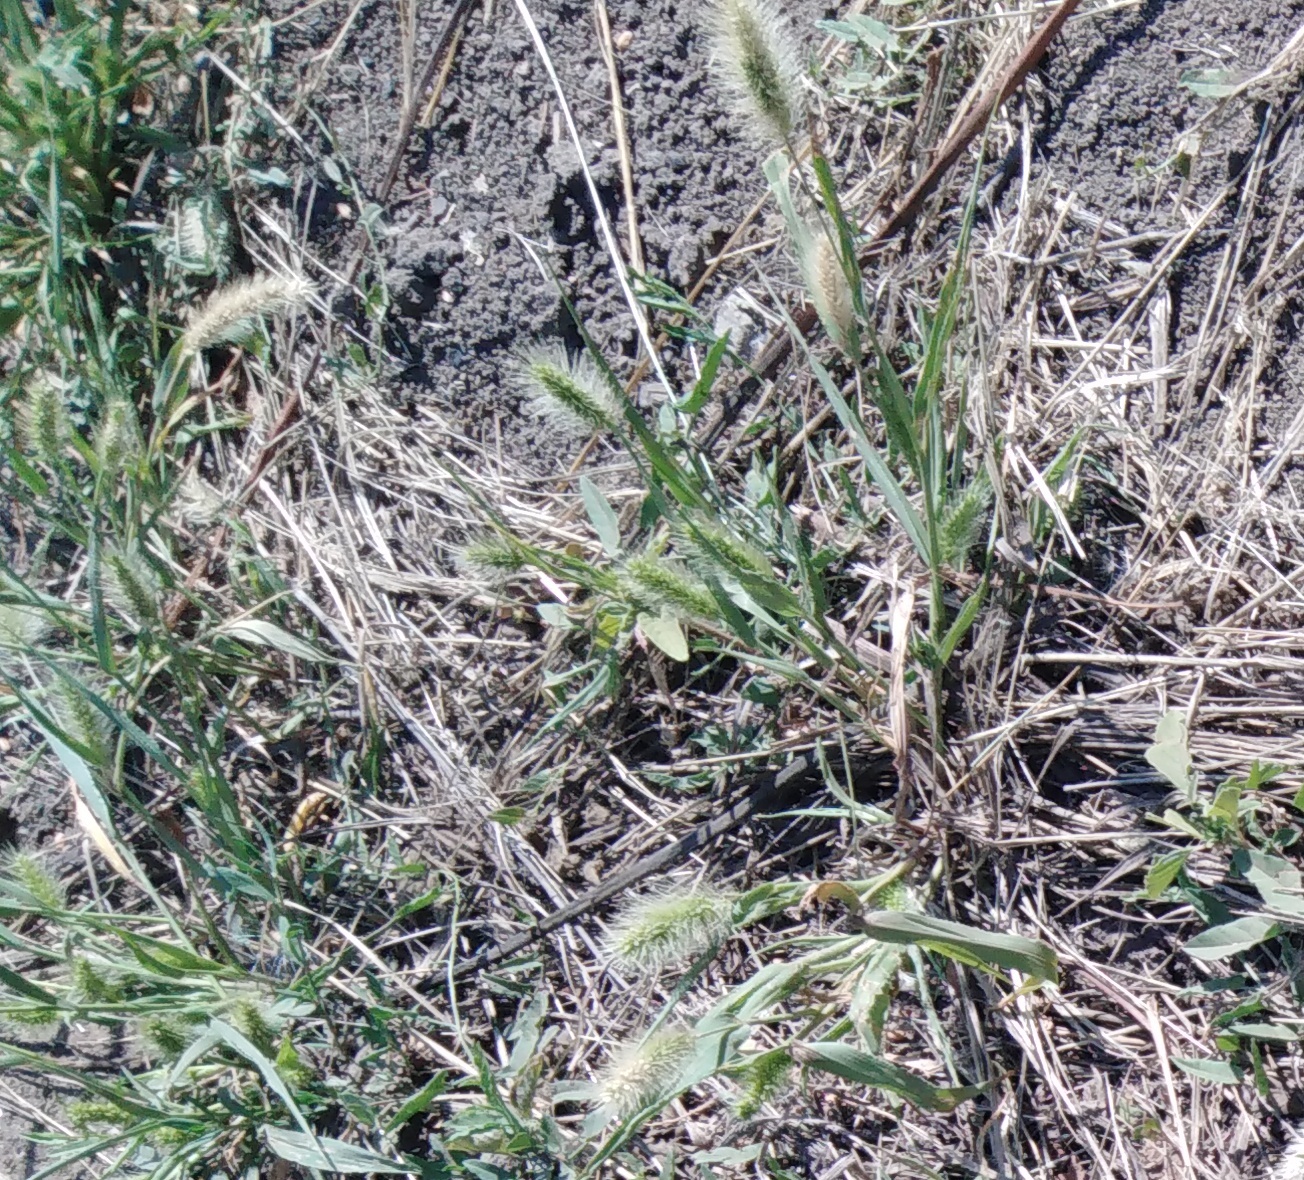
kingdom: Plantae
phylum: Tracheophyta
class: Liliopsida
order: Poales
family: Poaceae
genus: Setaria
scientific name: Setaria viridis
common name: Green bristlegrass
